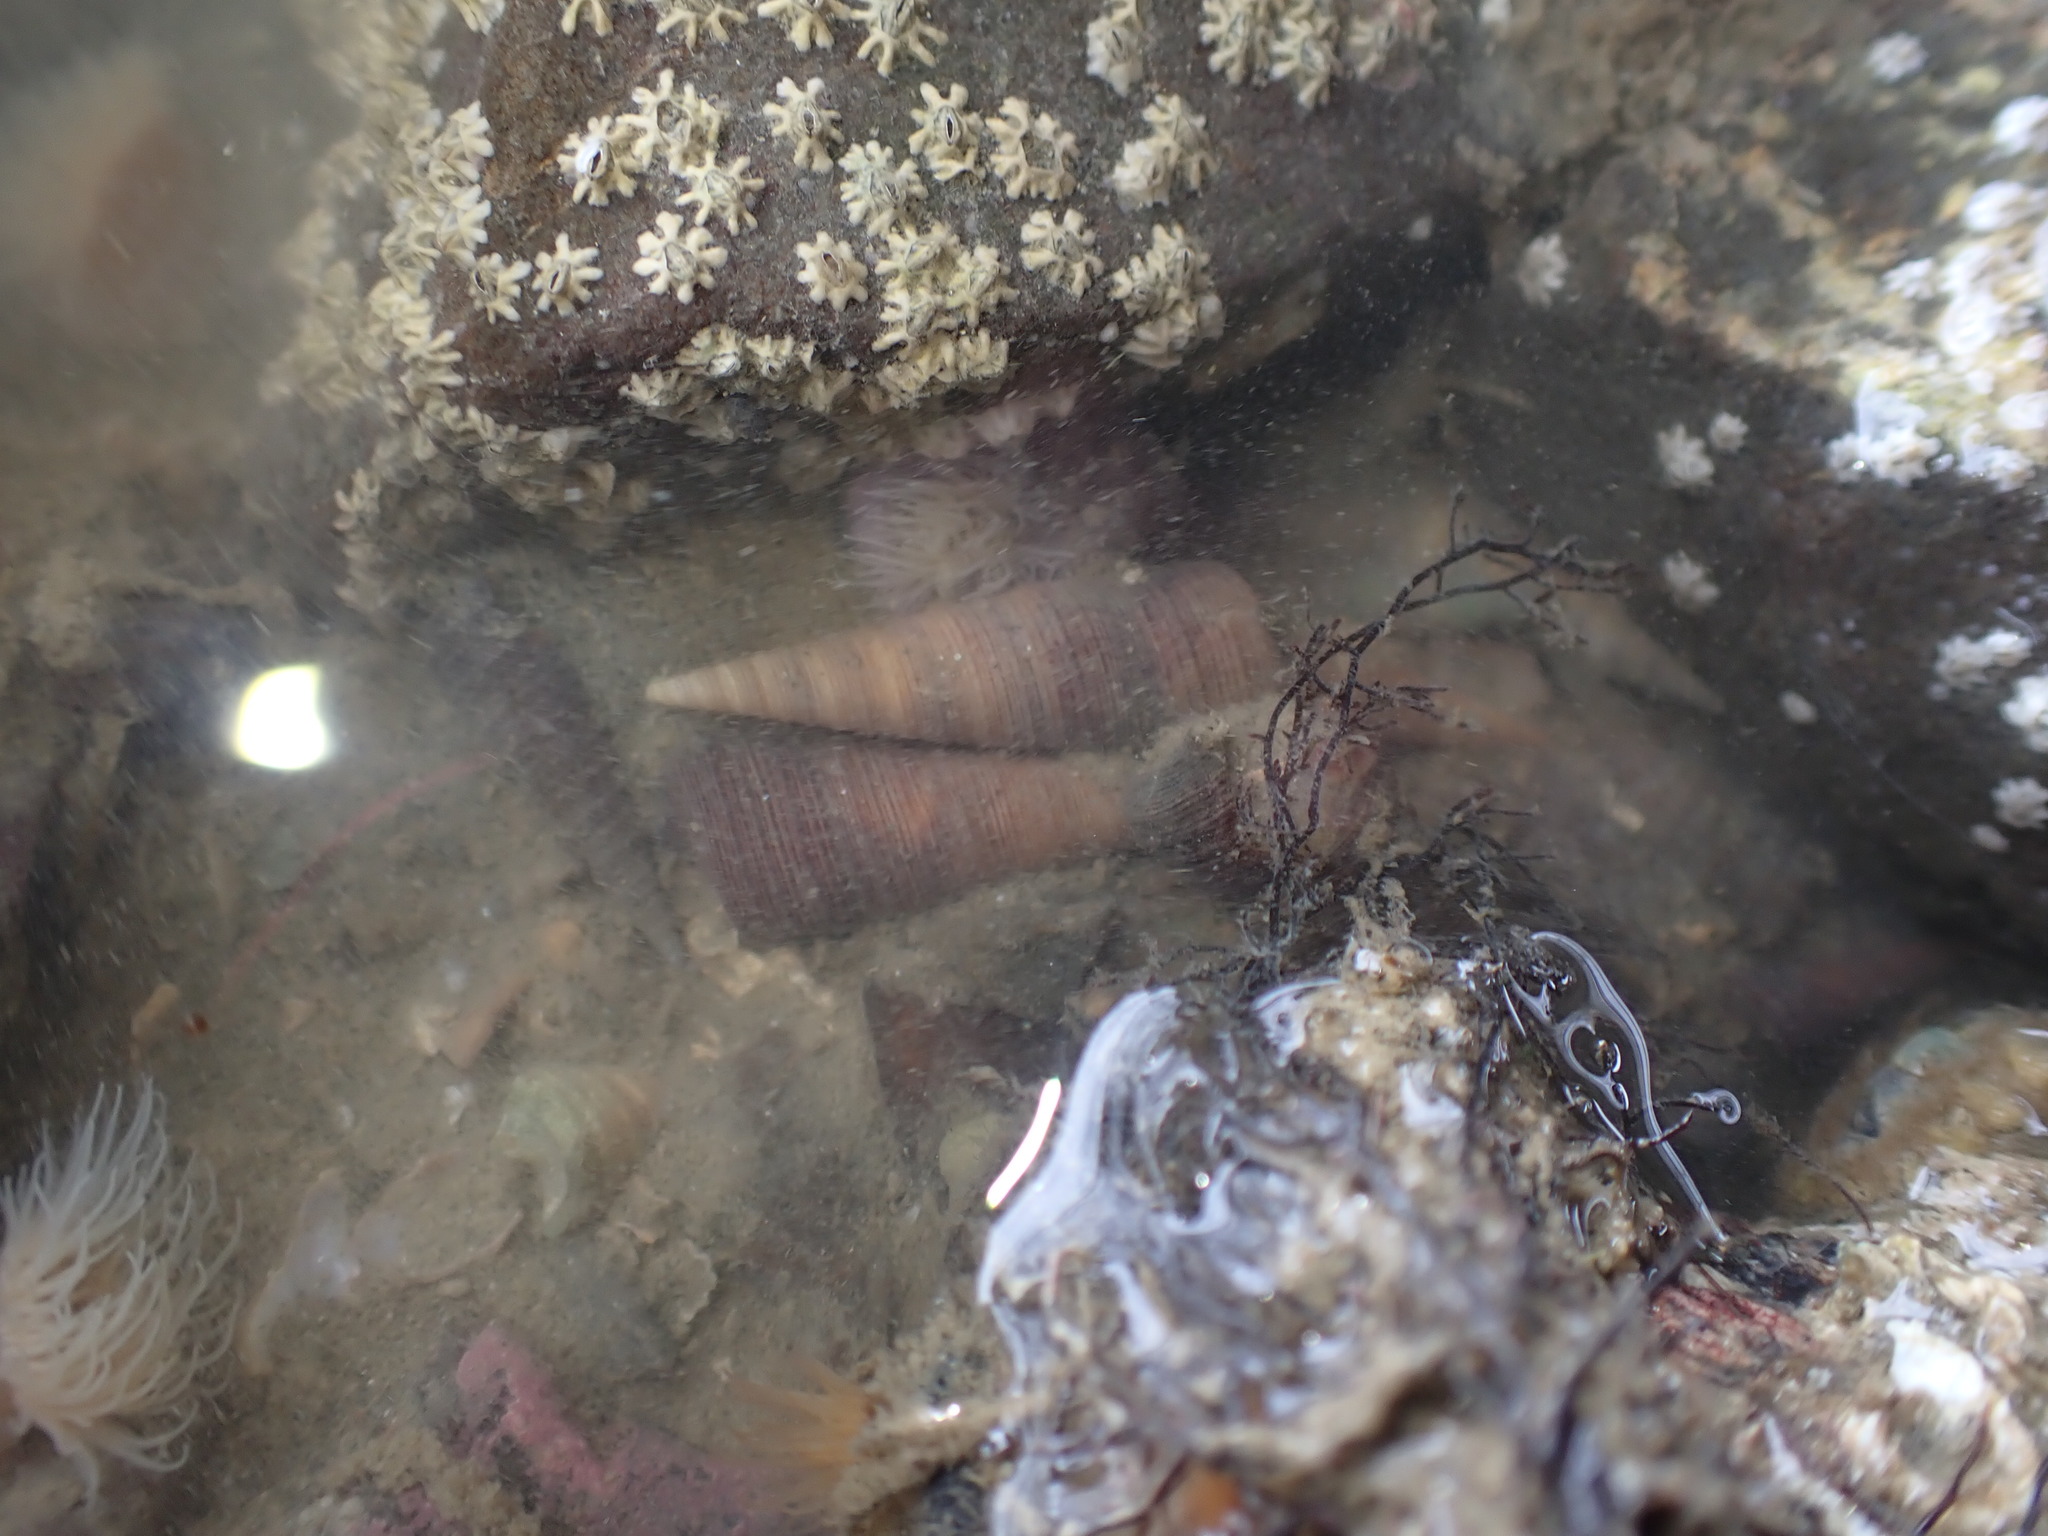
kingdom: Animalia
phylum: Mollusca
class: Gastropoda
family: Turritellidae
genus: Maoricolpus
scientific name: Maoricolpus roseus
